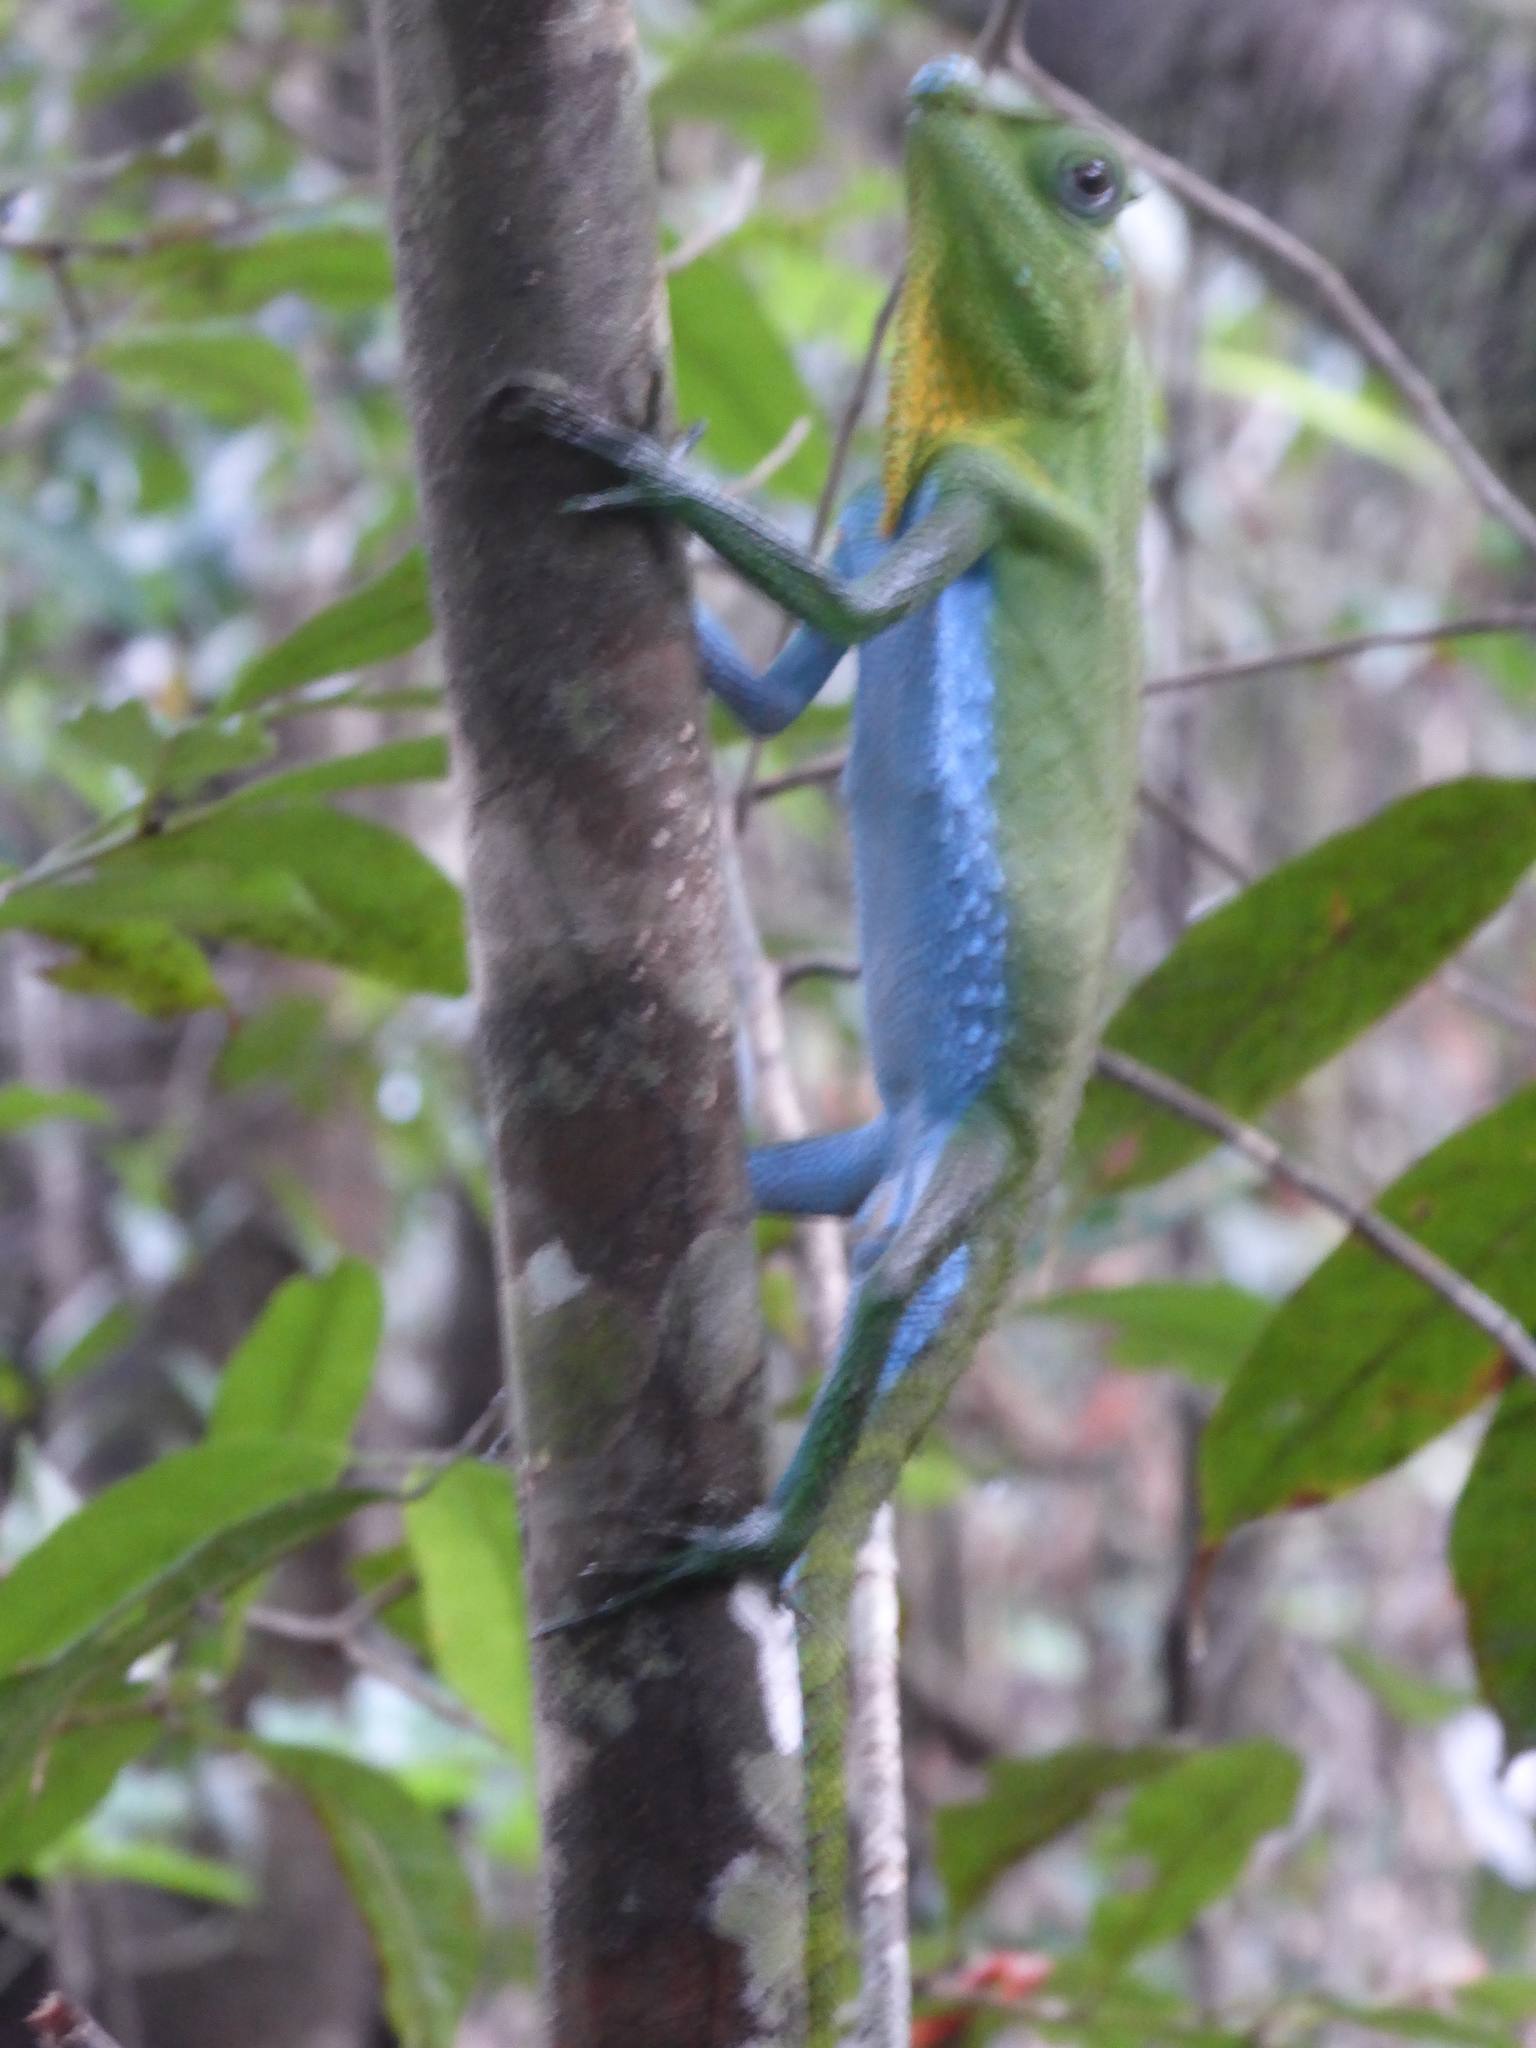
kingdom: Animalia
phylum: Chordata
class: Squamata
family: Agamidae
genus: Lyriocephalus
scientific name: Lyriocephalus scutatus
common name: Hump snout lizard
